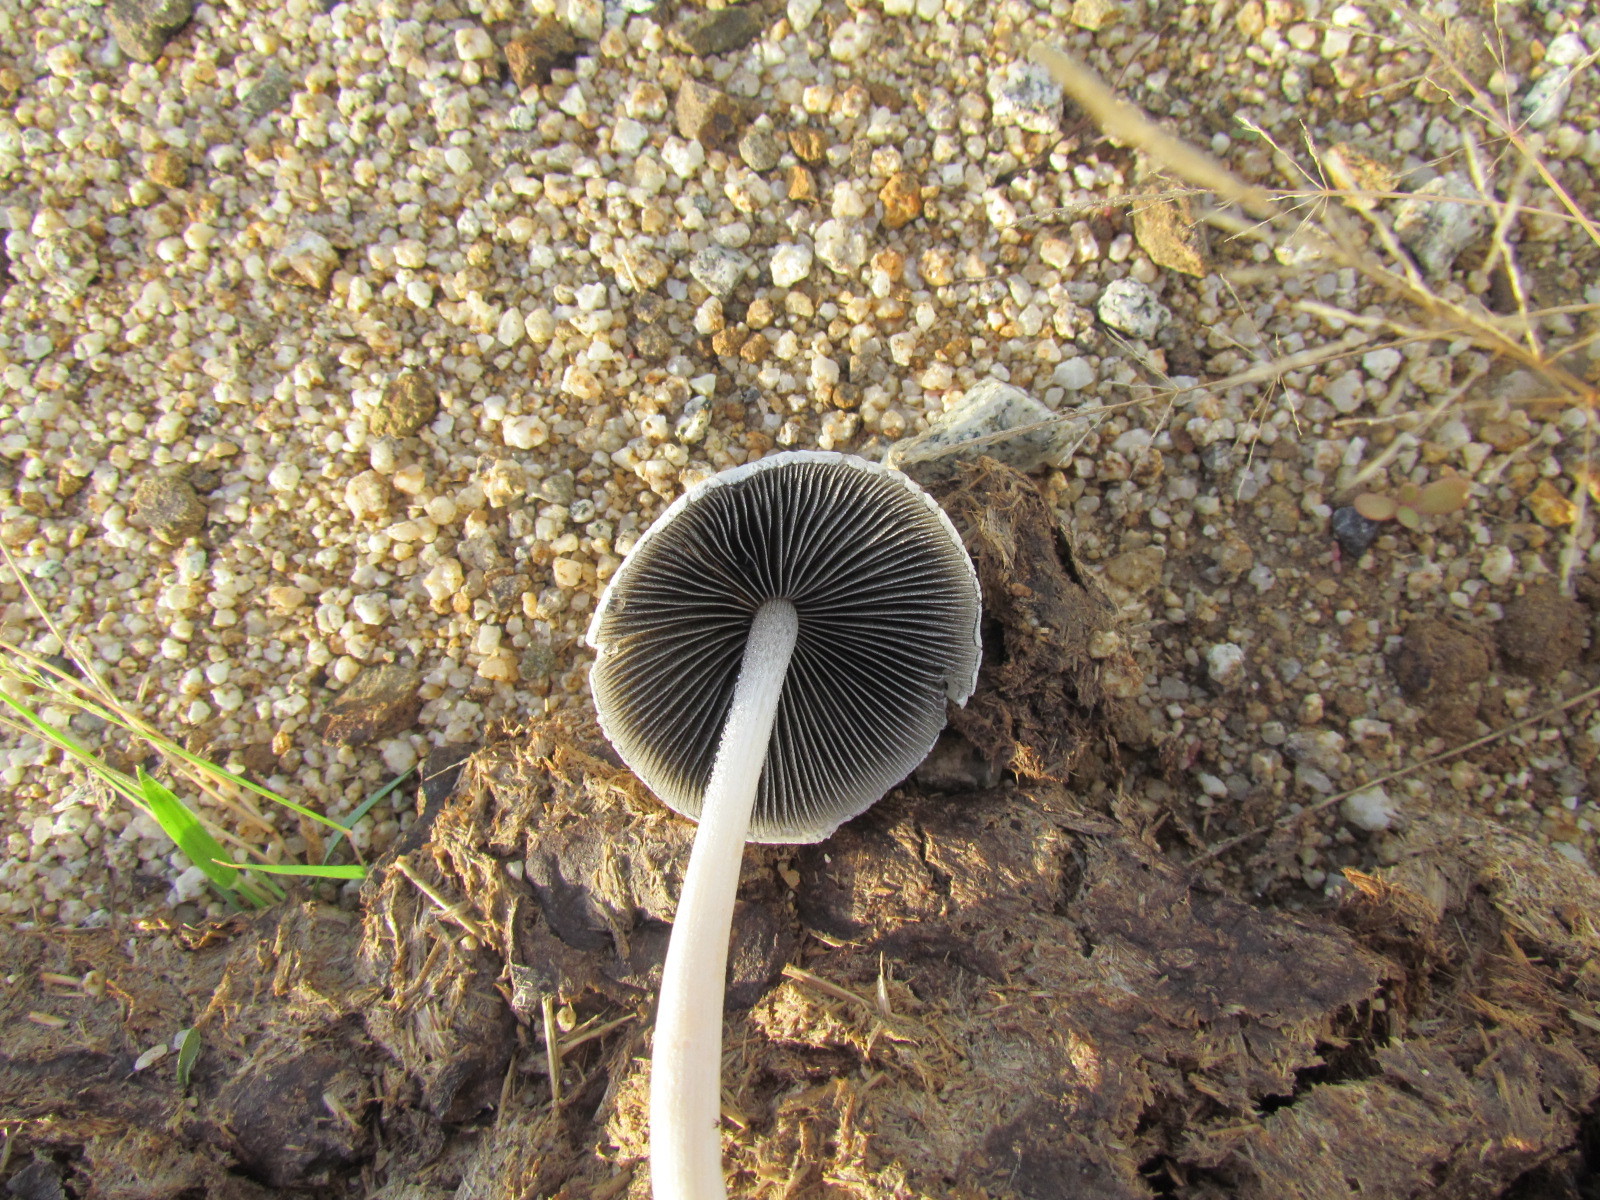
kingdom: Fungi
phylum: Basidiomycota
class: Agaricomycetes
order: Agaricales
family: Bolbitiaceae
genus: Panaeolus
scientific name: Panaeolus antillarum
